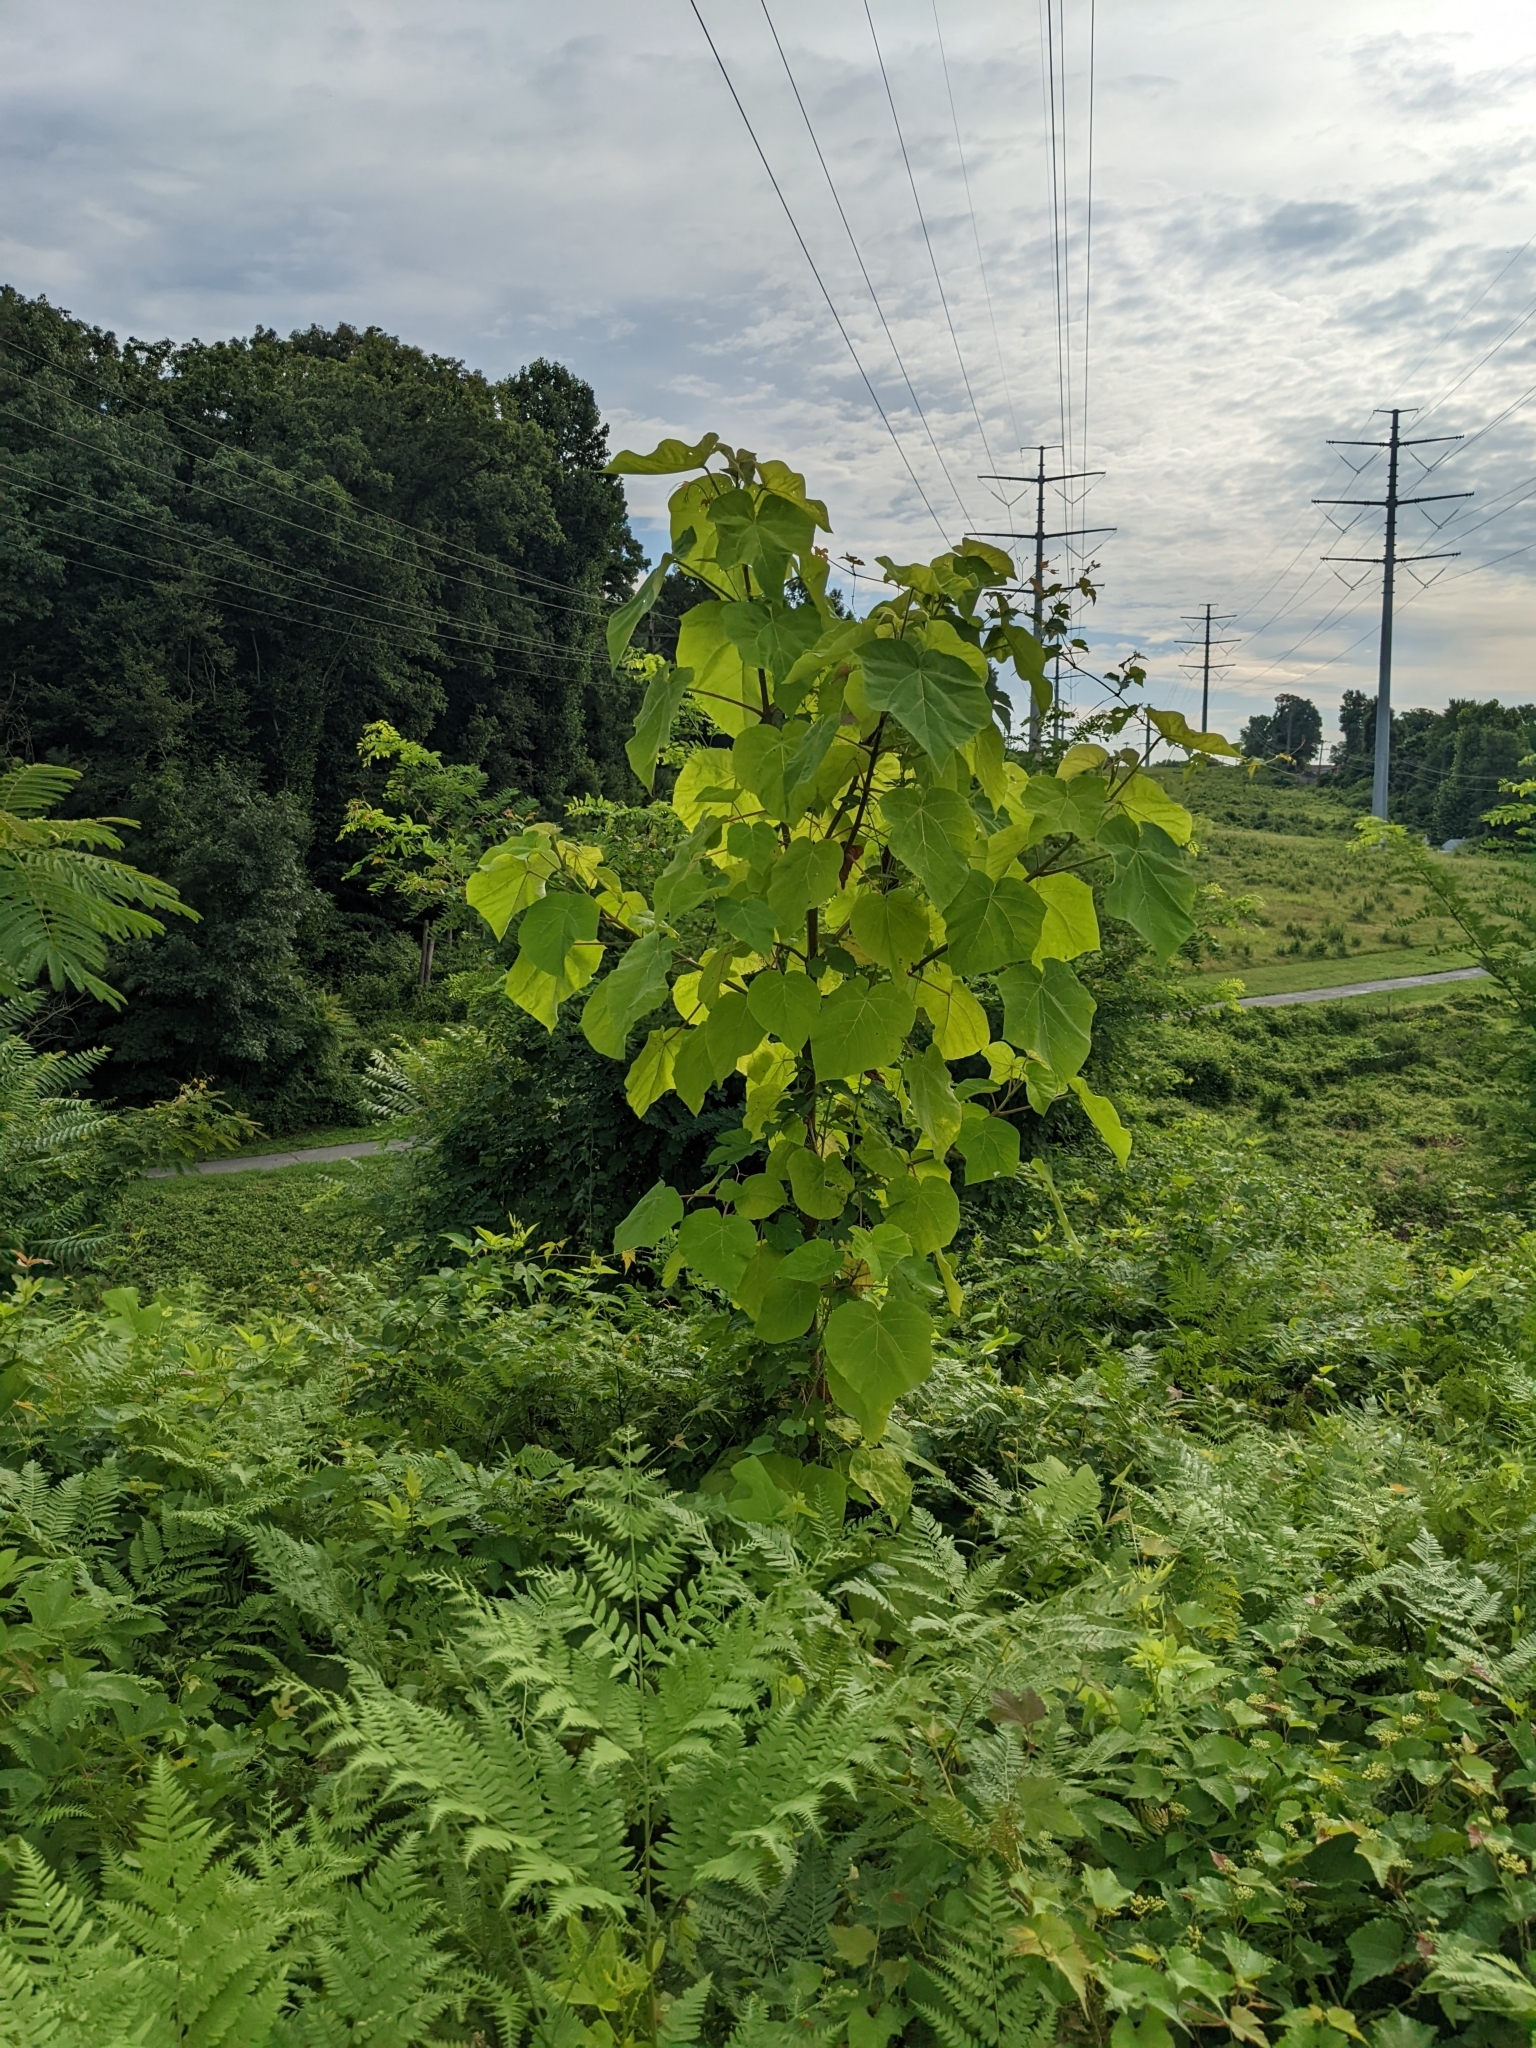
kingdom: Plantae
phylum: Tracheophyta
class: Magnoliopsida
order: Lamiales
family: Paulowniaceae
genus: Paulownia
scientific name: Paulownia tomentosa
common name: Foxglove-tree
